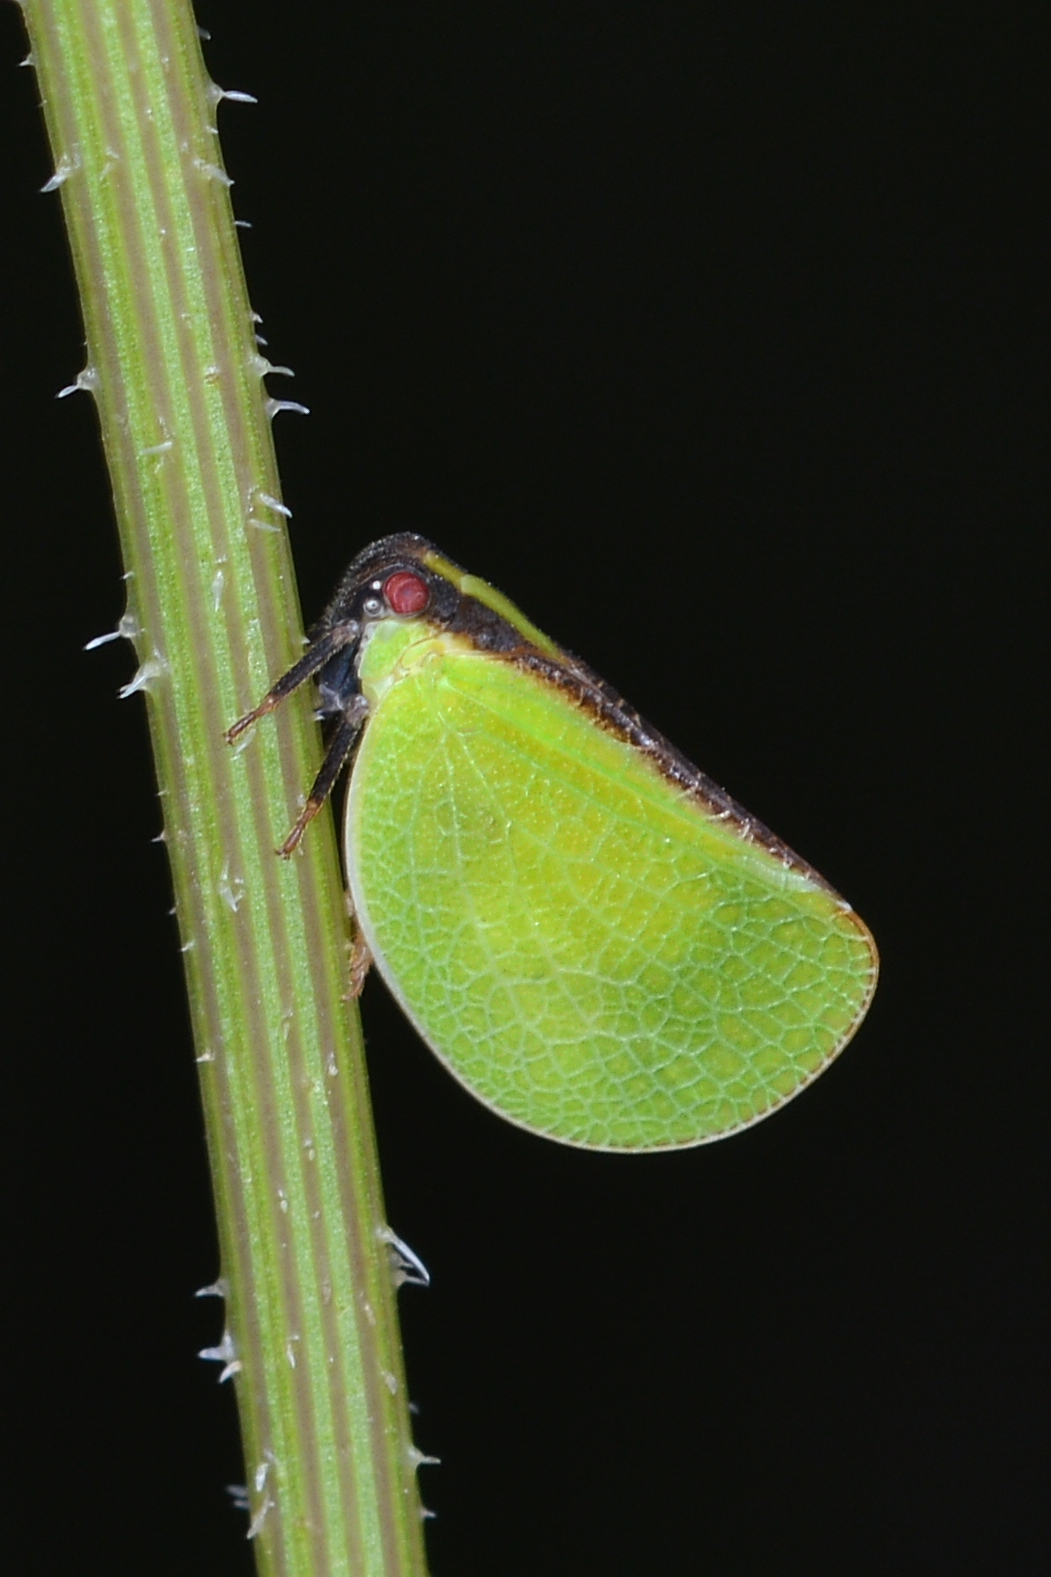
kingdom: Animalia
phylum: Arthropoda
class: Insecta
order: Hemiptera
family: Acanaloniidae
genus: Acanalonia
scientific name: Acanalonia bivittata
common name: Two-striped planthopper
